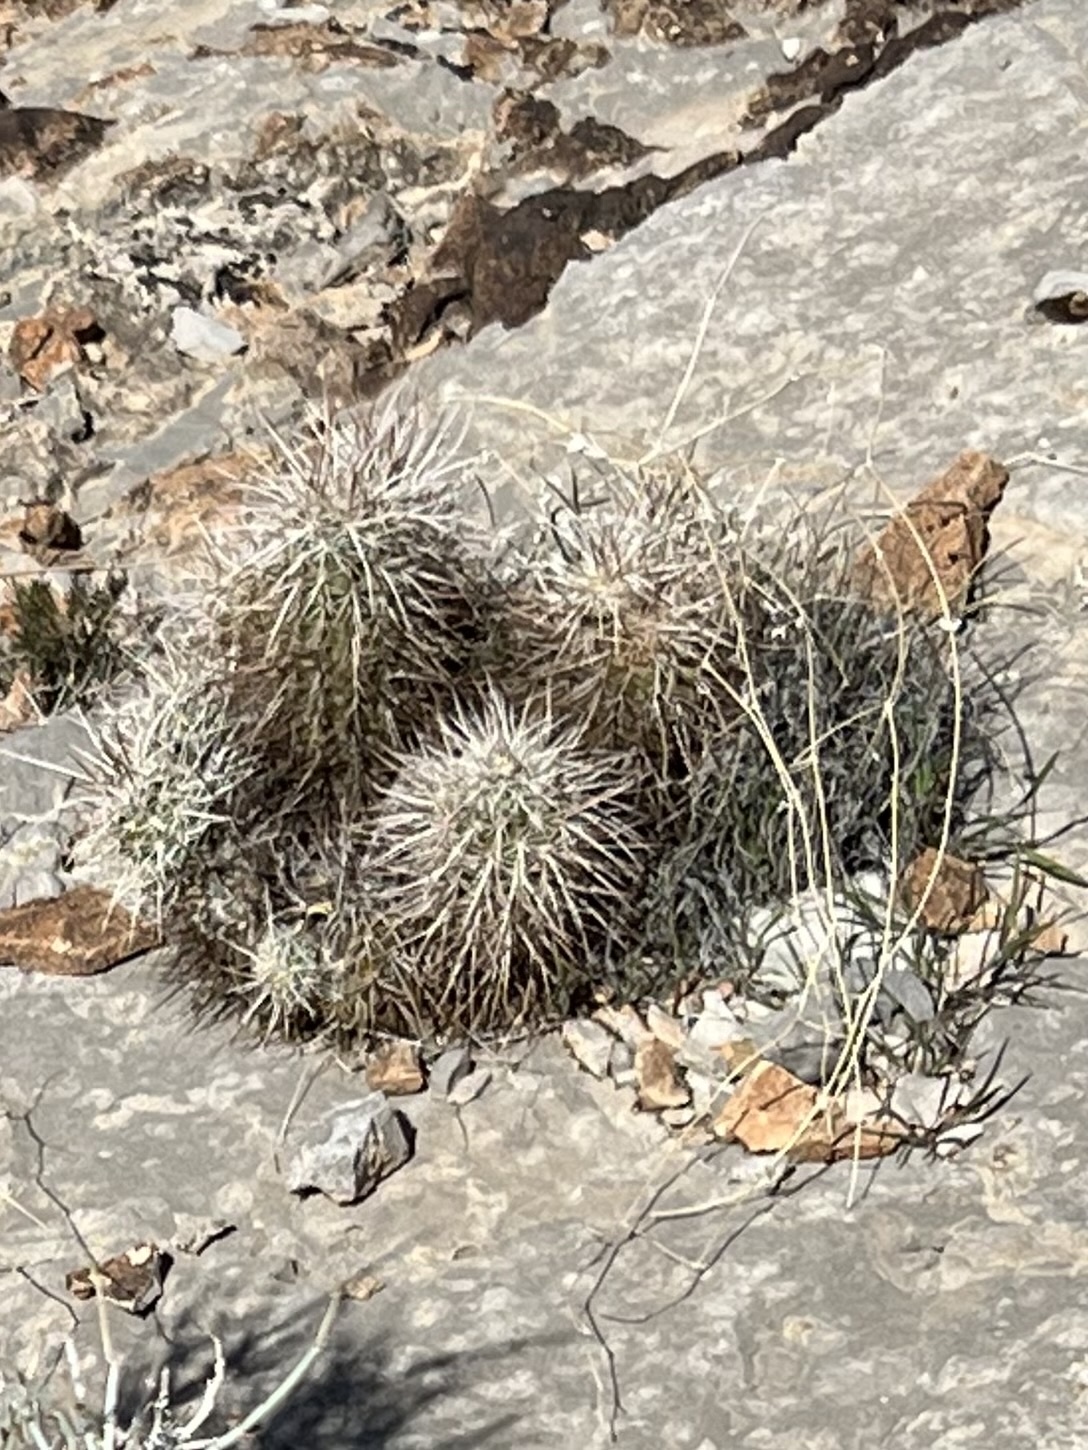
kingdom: Plantae
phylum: Tracheophyta
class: Magnoliopsida
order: Caryophyllales
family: Cactaceae
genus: Echinocereus
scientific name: Echinocereus engelmannii
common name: Engelmann's hedgehog cactus
